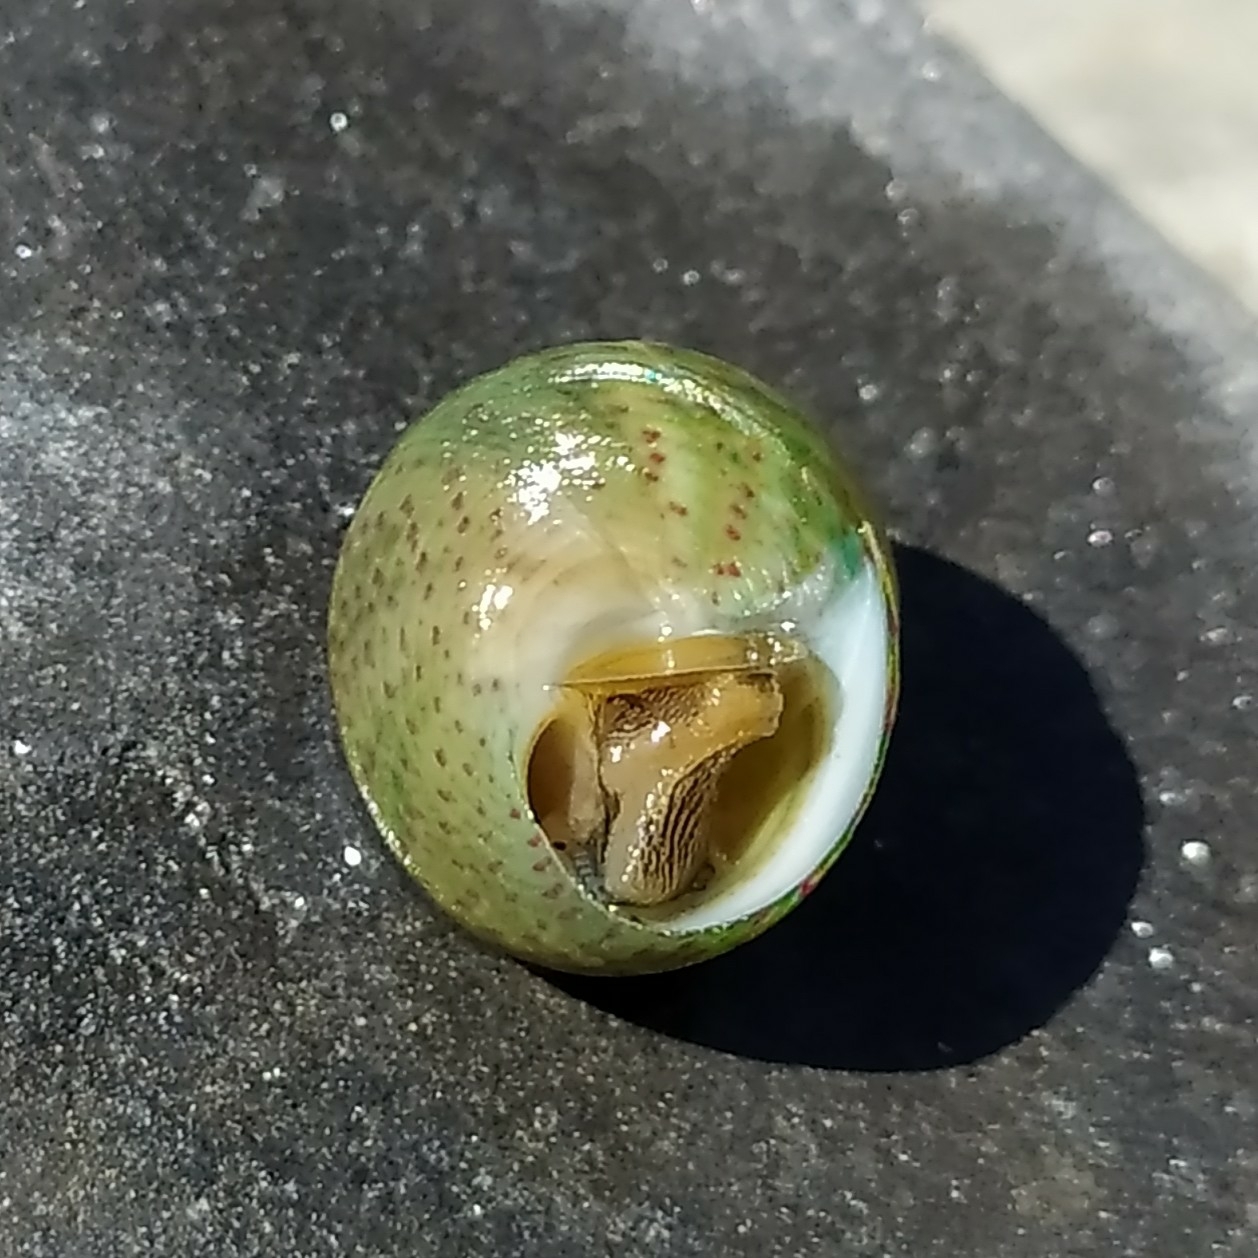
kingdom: Animalia
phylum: Mollusca
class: Gastropoda
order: Trochida
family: Trochidae
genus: Steromphala
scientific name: Steromphala divaricata
